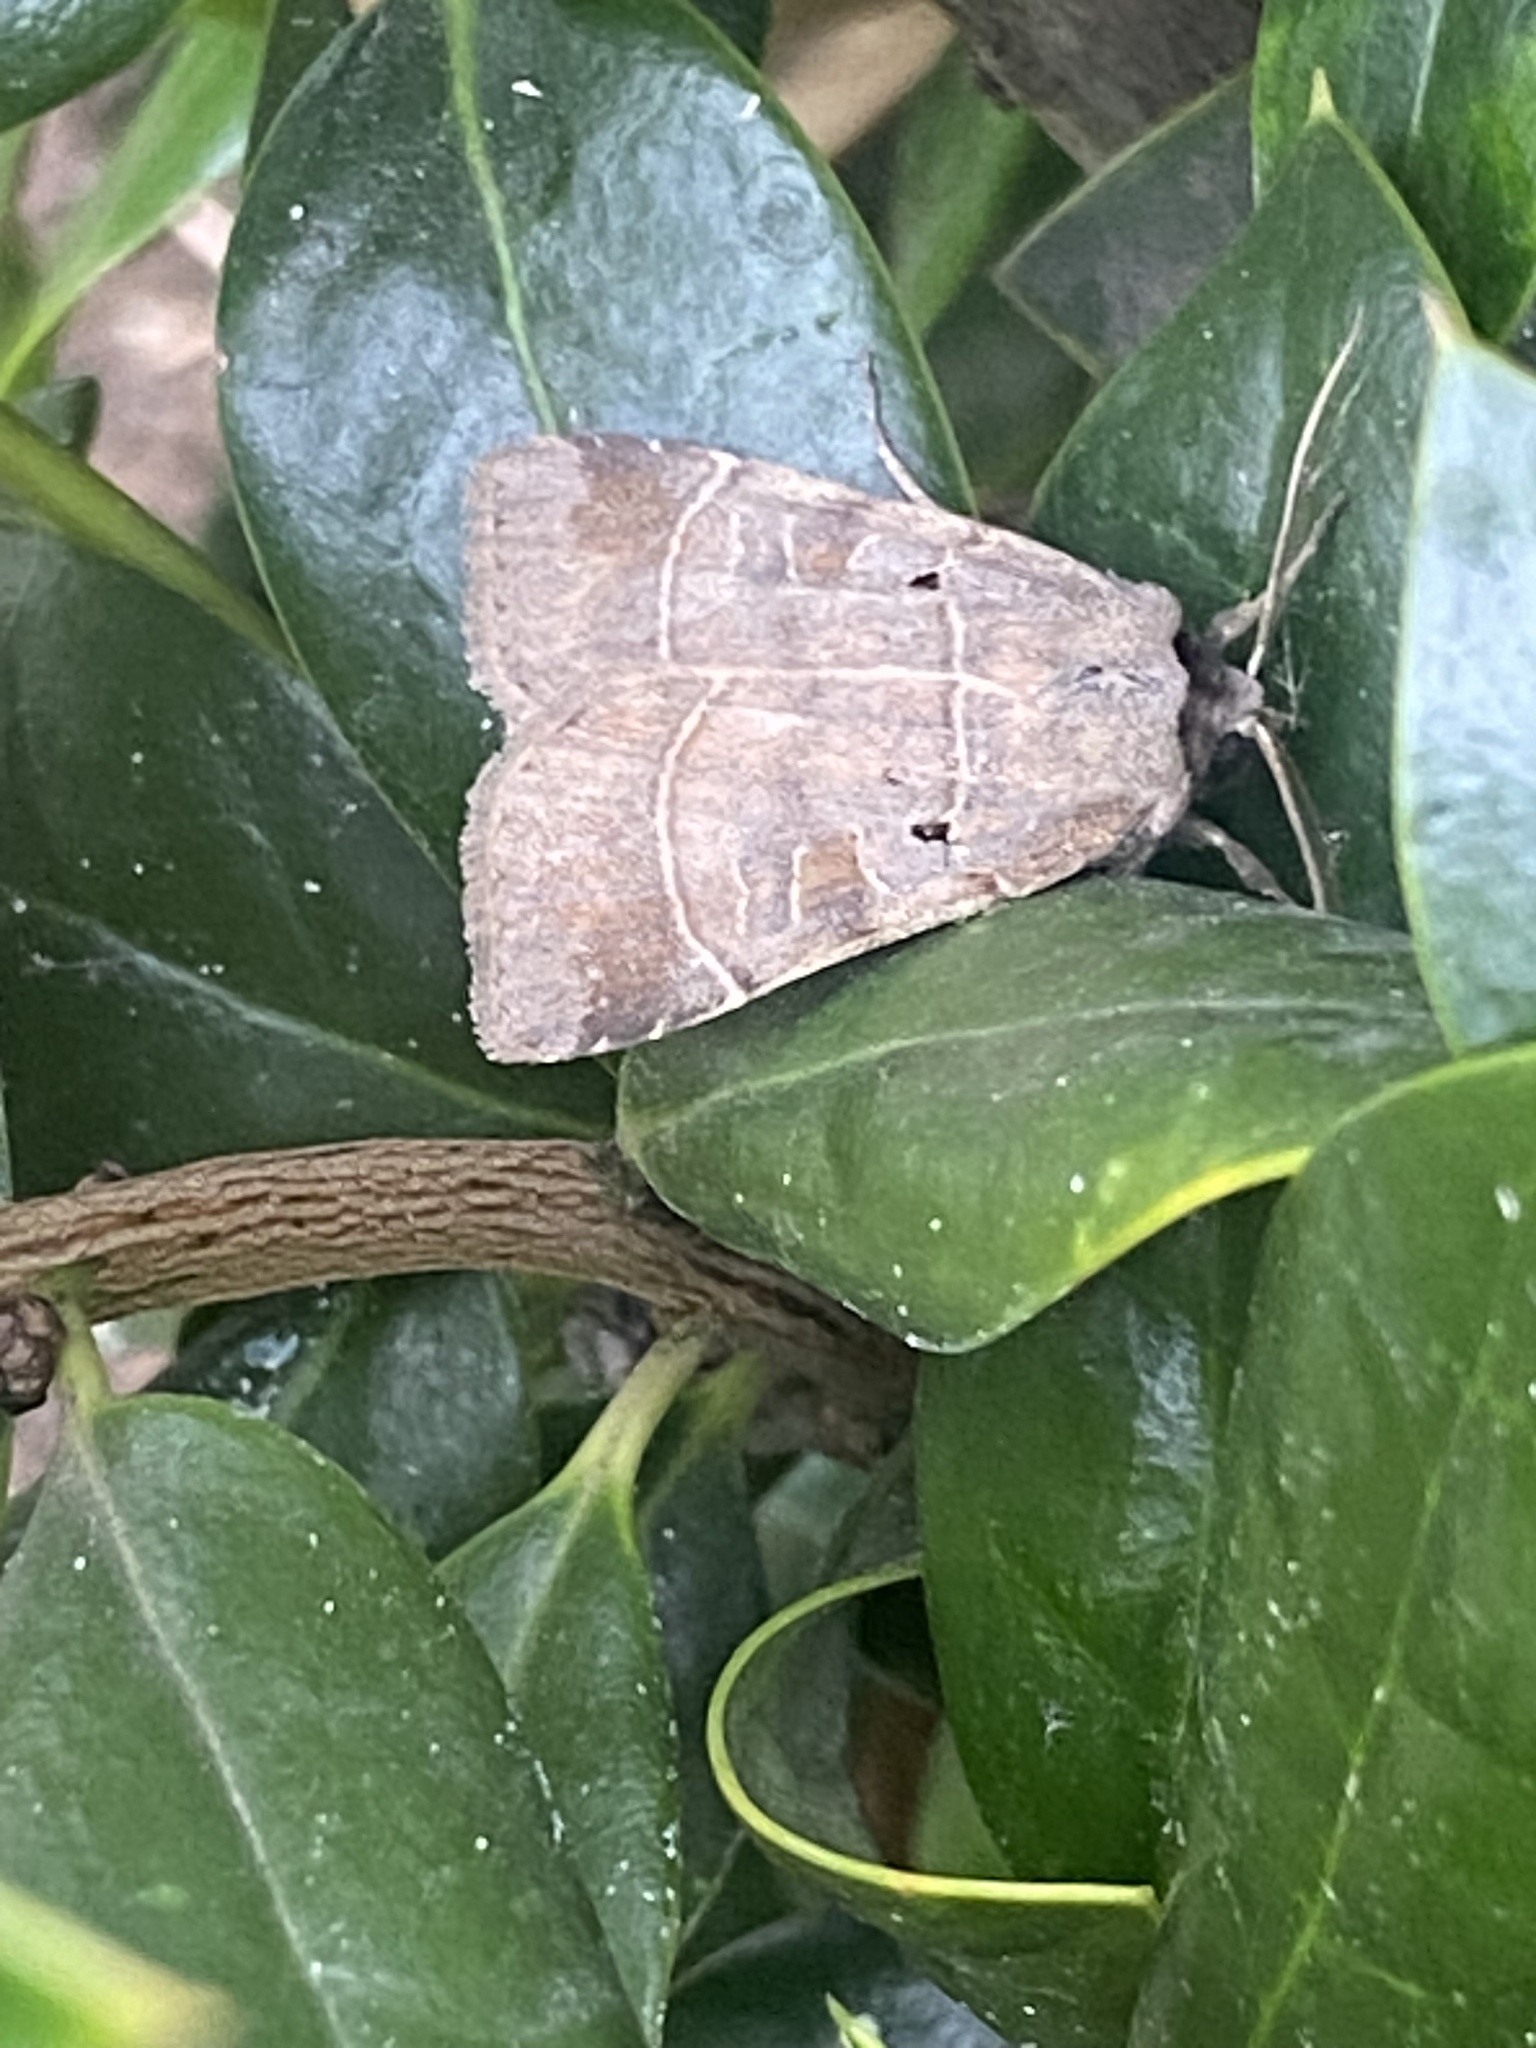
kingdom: Animalia
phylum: Arthropoda
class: Insecta
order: Lepidoptera
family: Noctuidae
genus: Agnorisma
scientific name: Agnorisma badinodis
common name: Pale-banded dart
